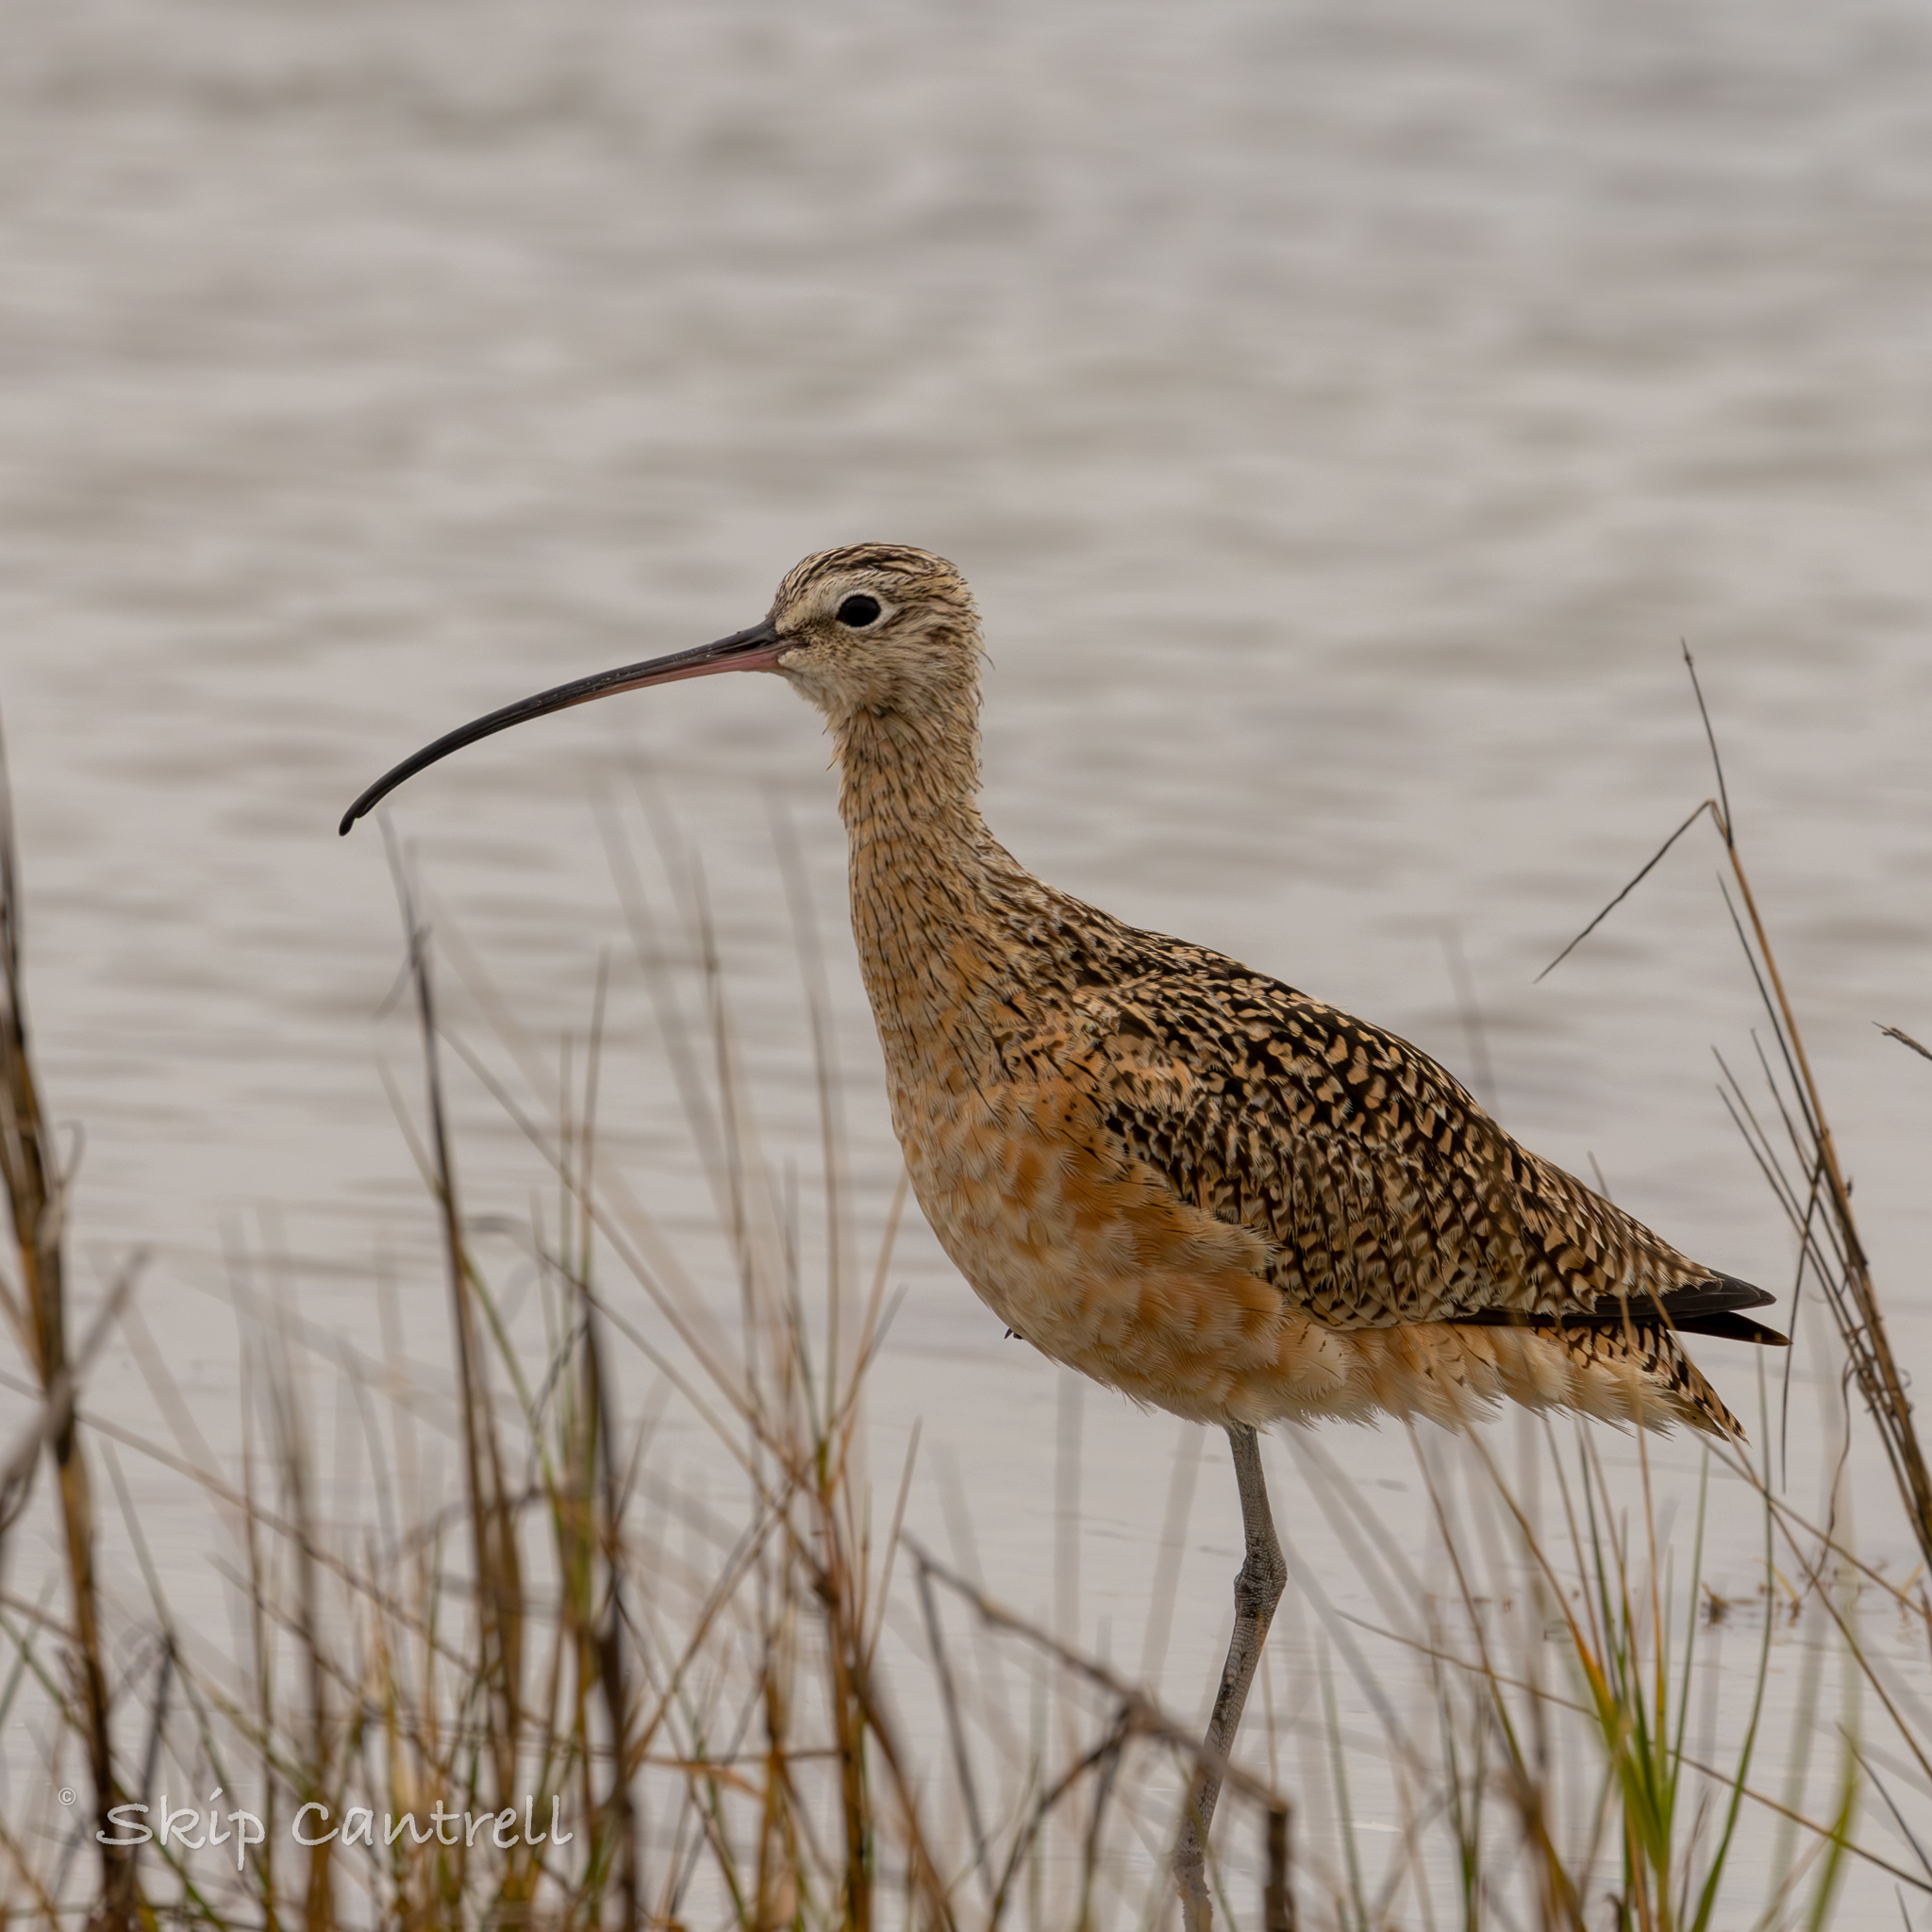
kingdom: Animalia
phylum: Chordata
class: Aves
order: Charadriiformes
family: Scolopacidae
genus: Numenius
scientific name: Numenius americanus
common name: Long-billed curlew
